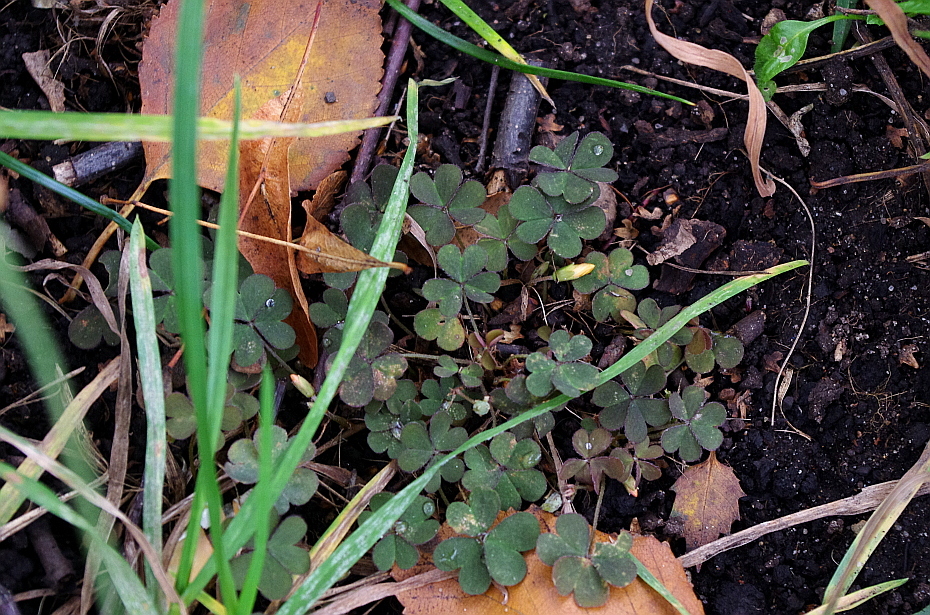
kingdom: Plantae
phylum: Tracheophyta
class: Magnoliopsida
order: Oxalidales
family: Oxalidaceae
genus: Oxalis
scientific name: Oxalis corniculata
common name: Procumbent yellow-sorrel
